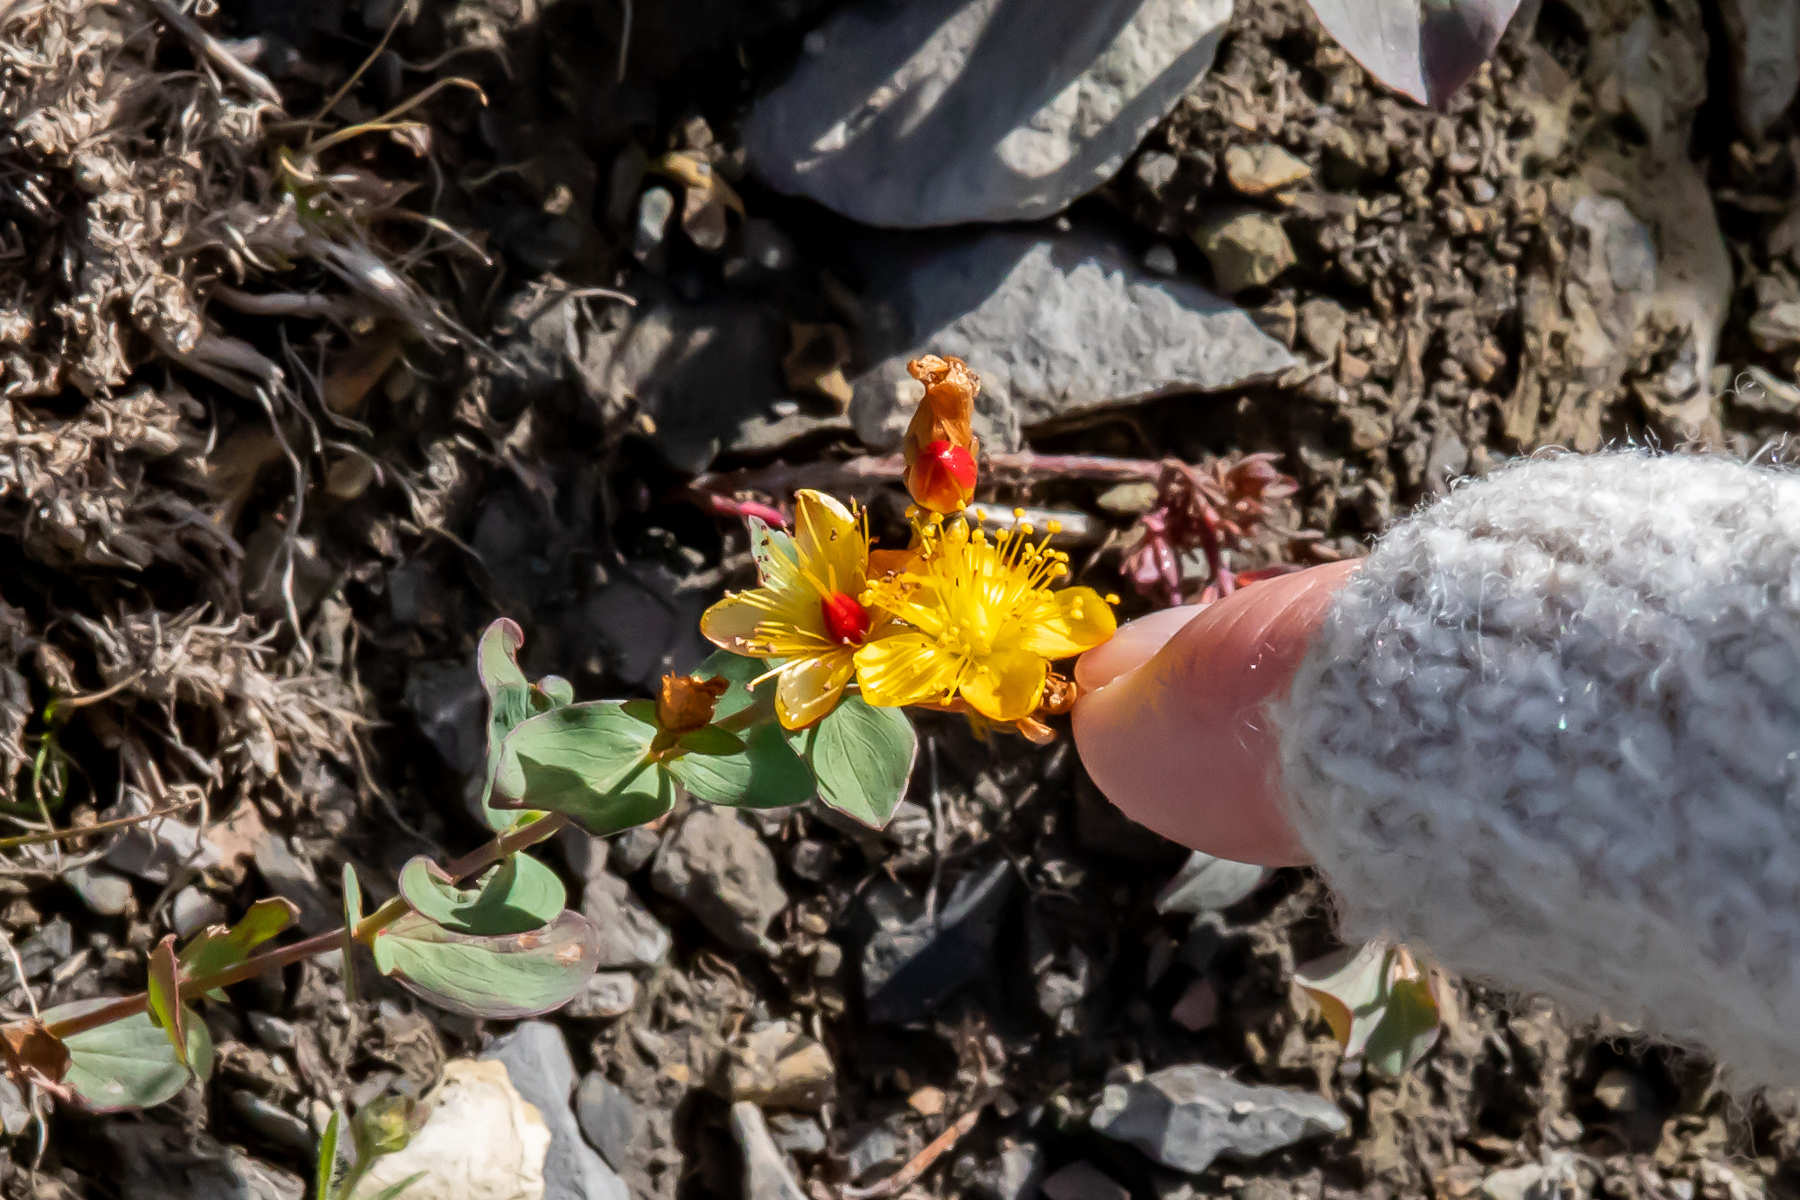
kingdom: Plantae
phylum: Tracheophyta
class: Magnoliopsida
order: Malpighiales
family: Hypericaceae
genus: Hypericum
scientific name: Hypericum scouleri
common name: Scouler's st. john's-wort
